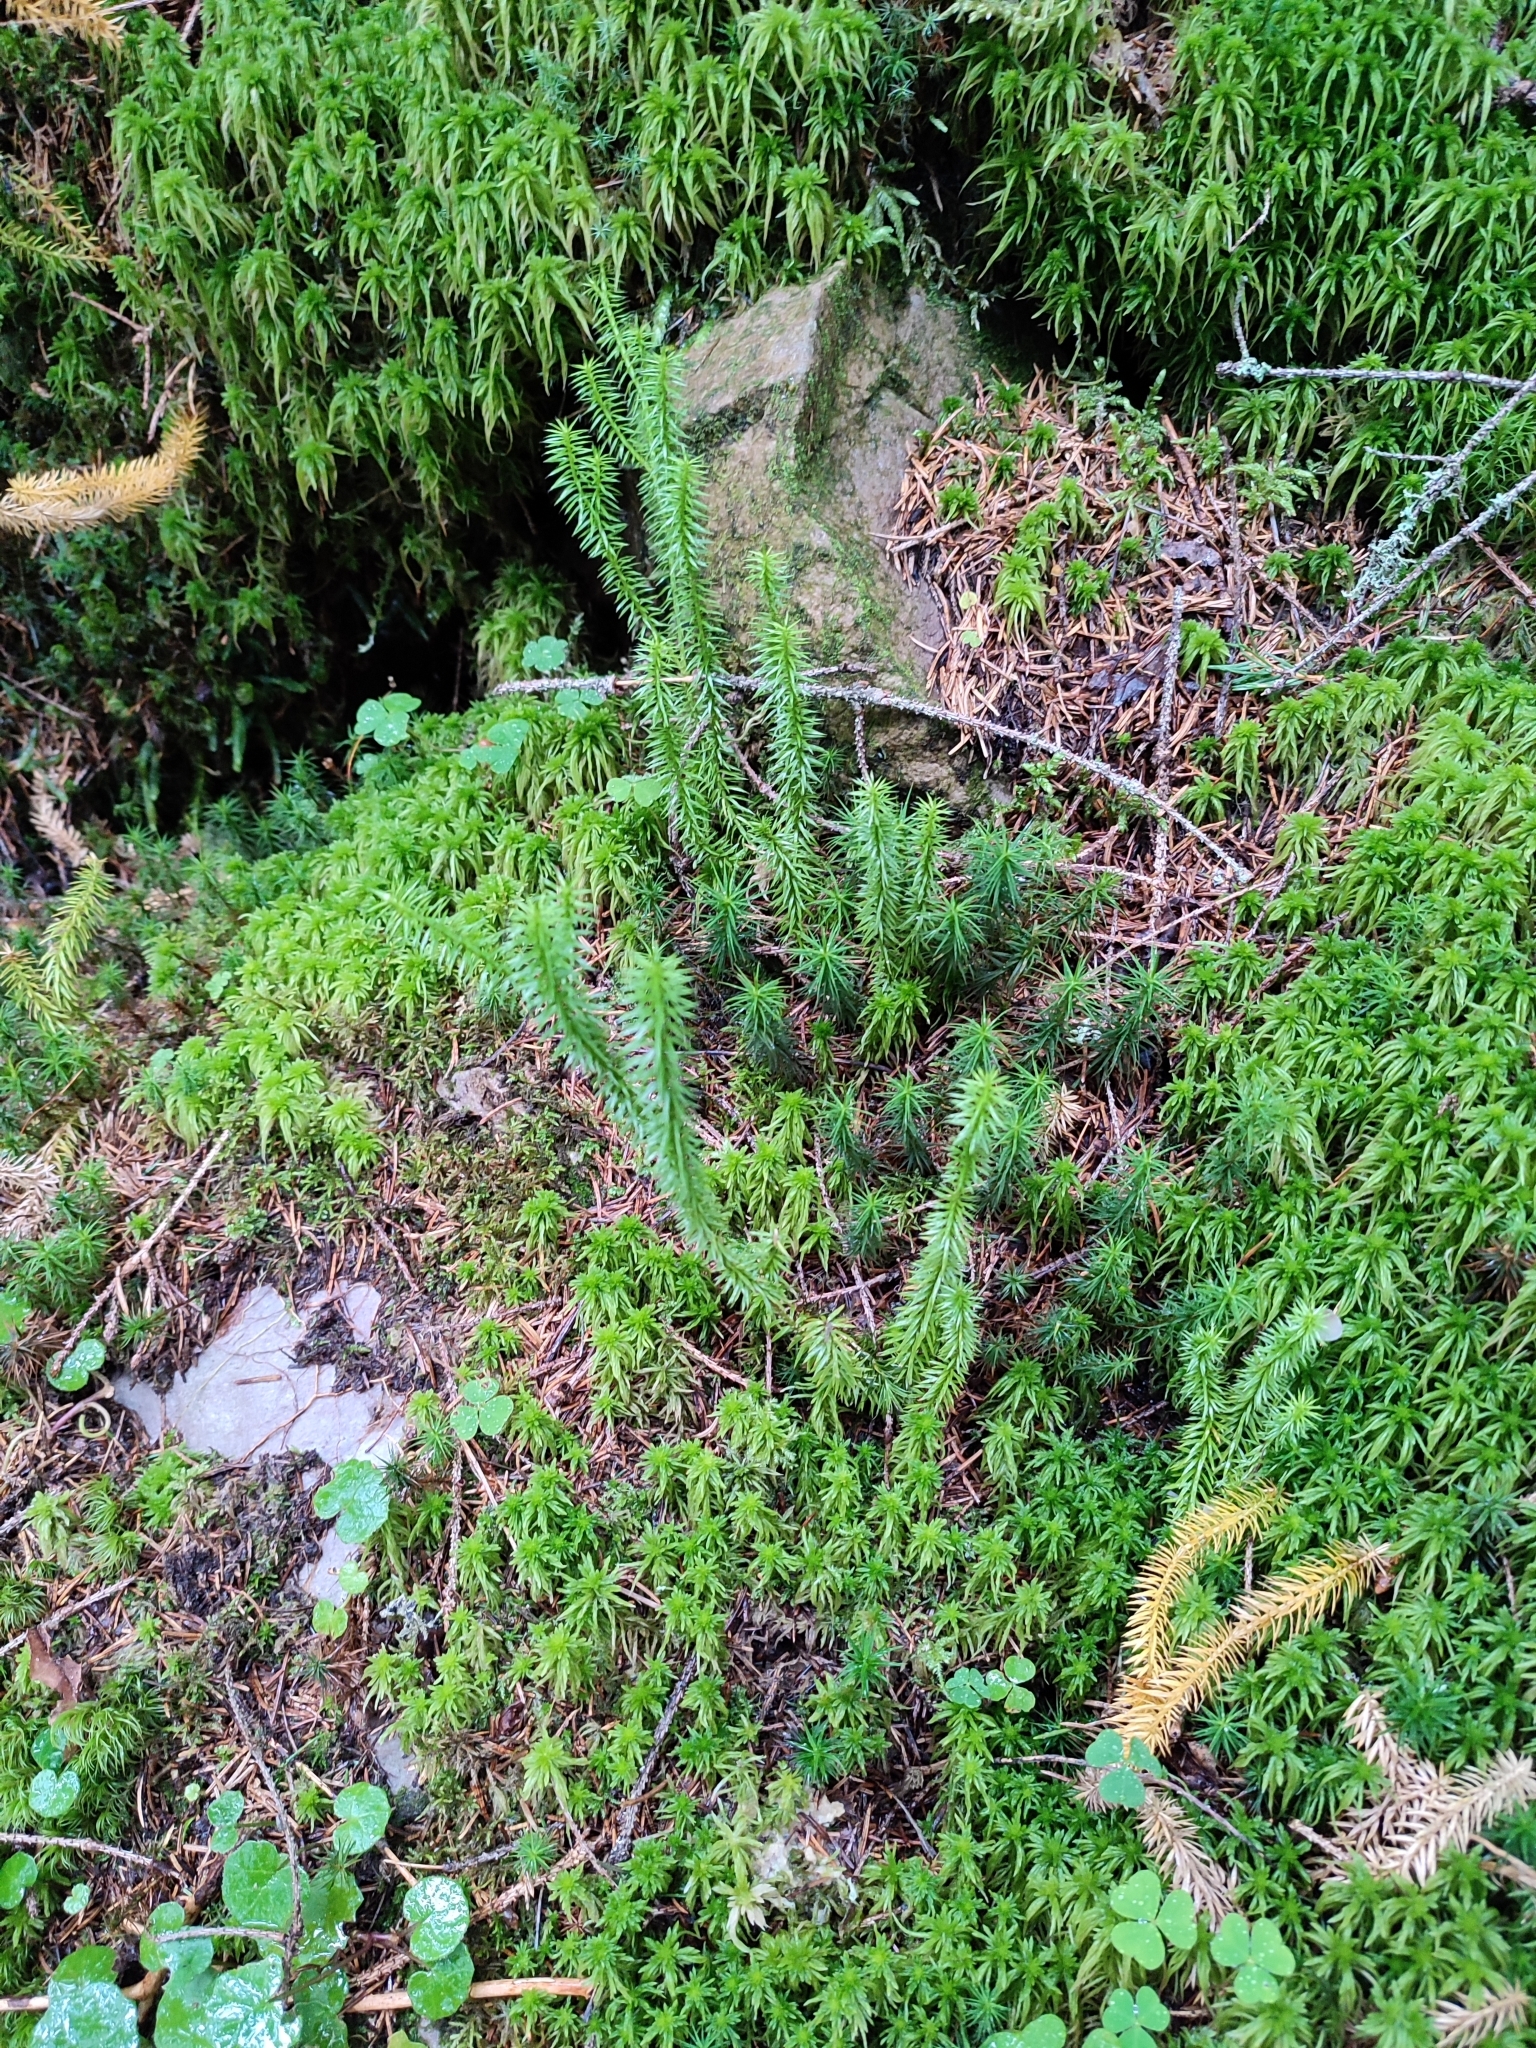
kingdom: Plantae
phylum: Tracheophyta
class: Lycopodiopsida
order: Lycopodiales
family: Lycopodiaceae
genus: Spinulum
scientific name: Spinulum annotinum
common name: Interrupted club-moss
